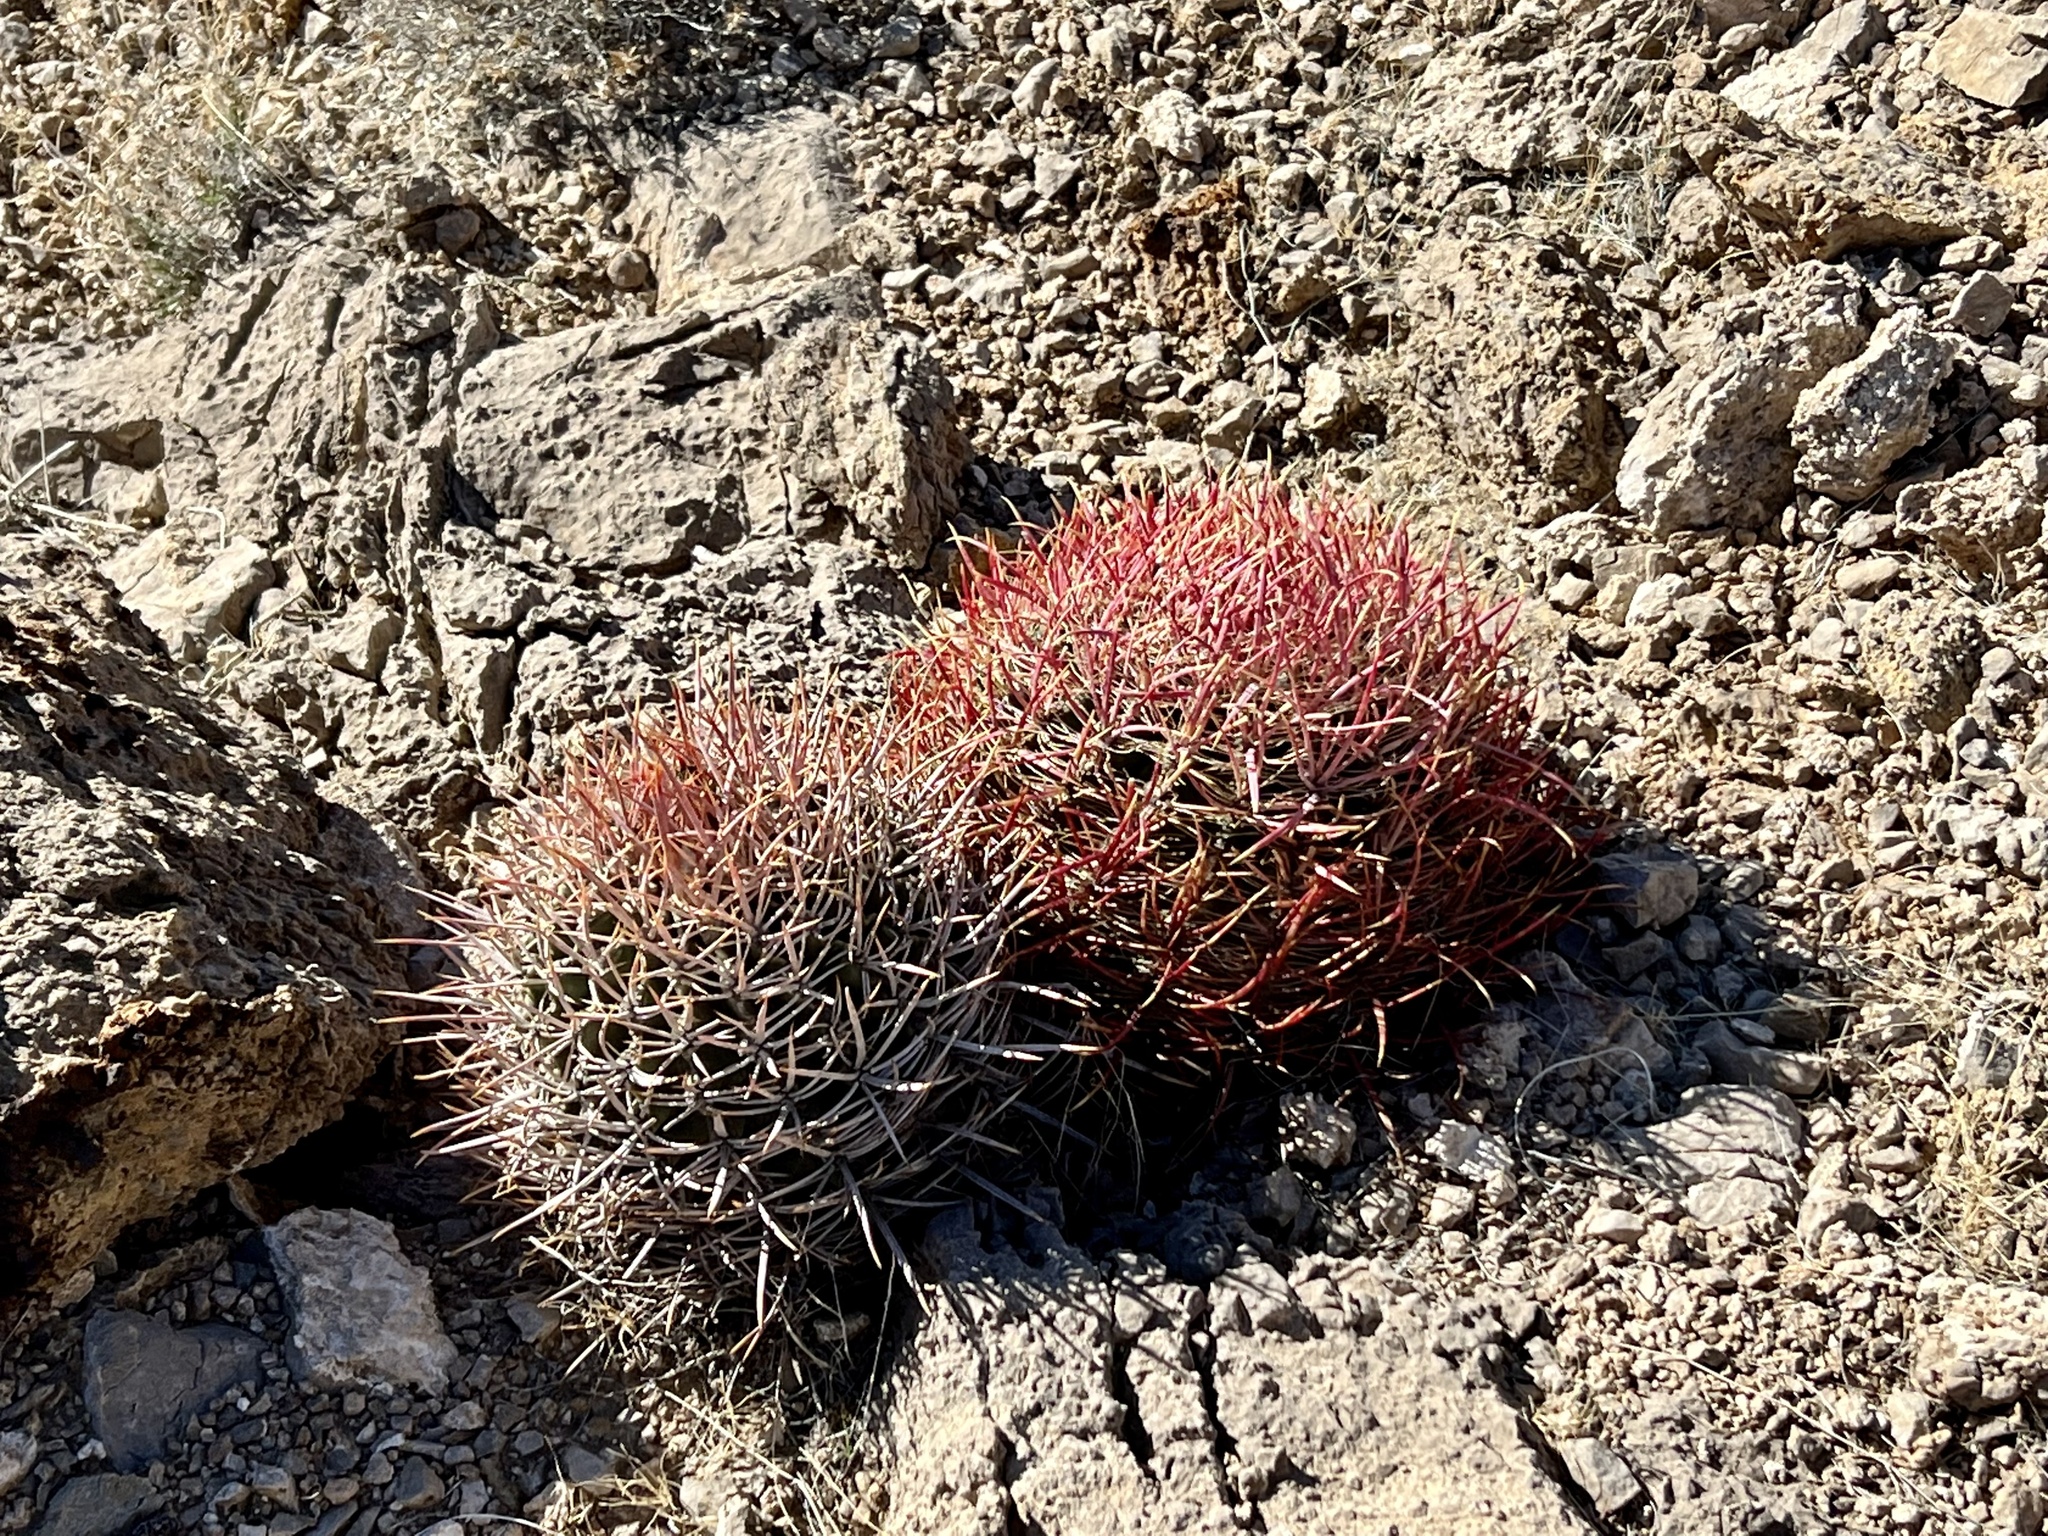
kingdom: Plantae
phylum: Tracheophyta
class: Magnoliopsida
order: Caryophyllales
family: Cactaceae
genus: Ferocactus
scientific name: Ferocactus cylindraceus
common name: California barrel cactus
